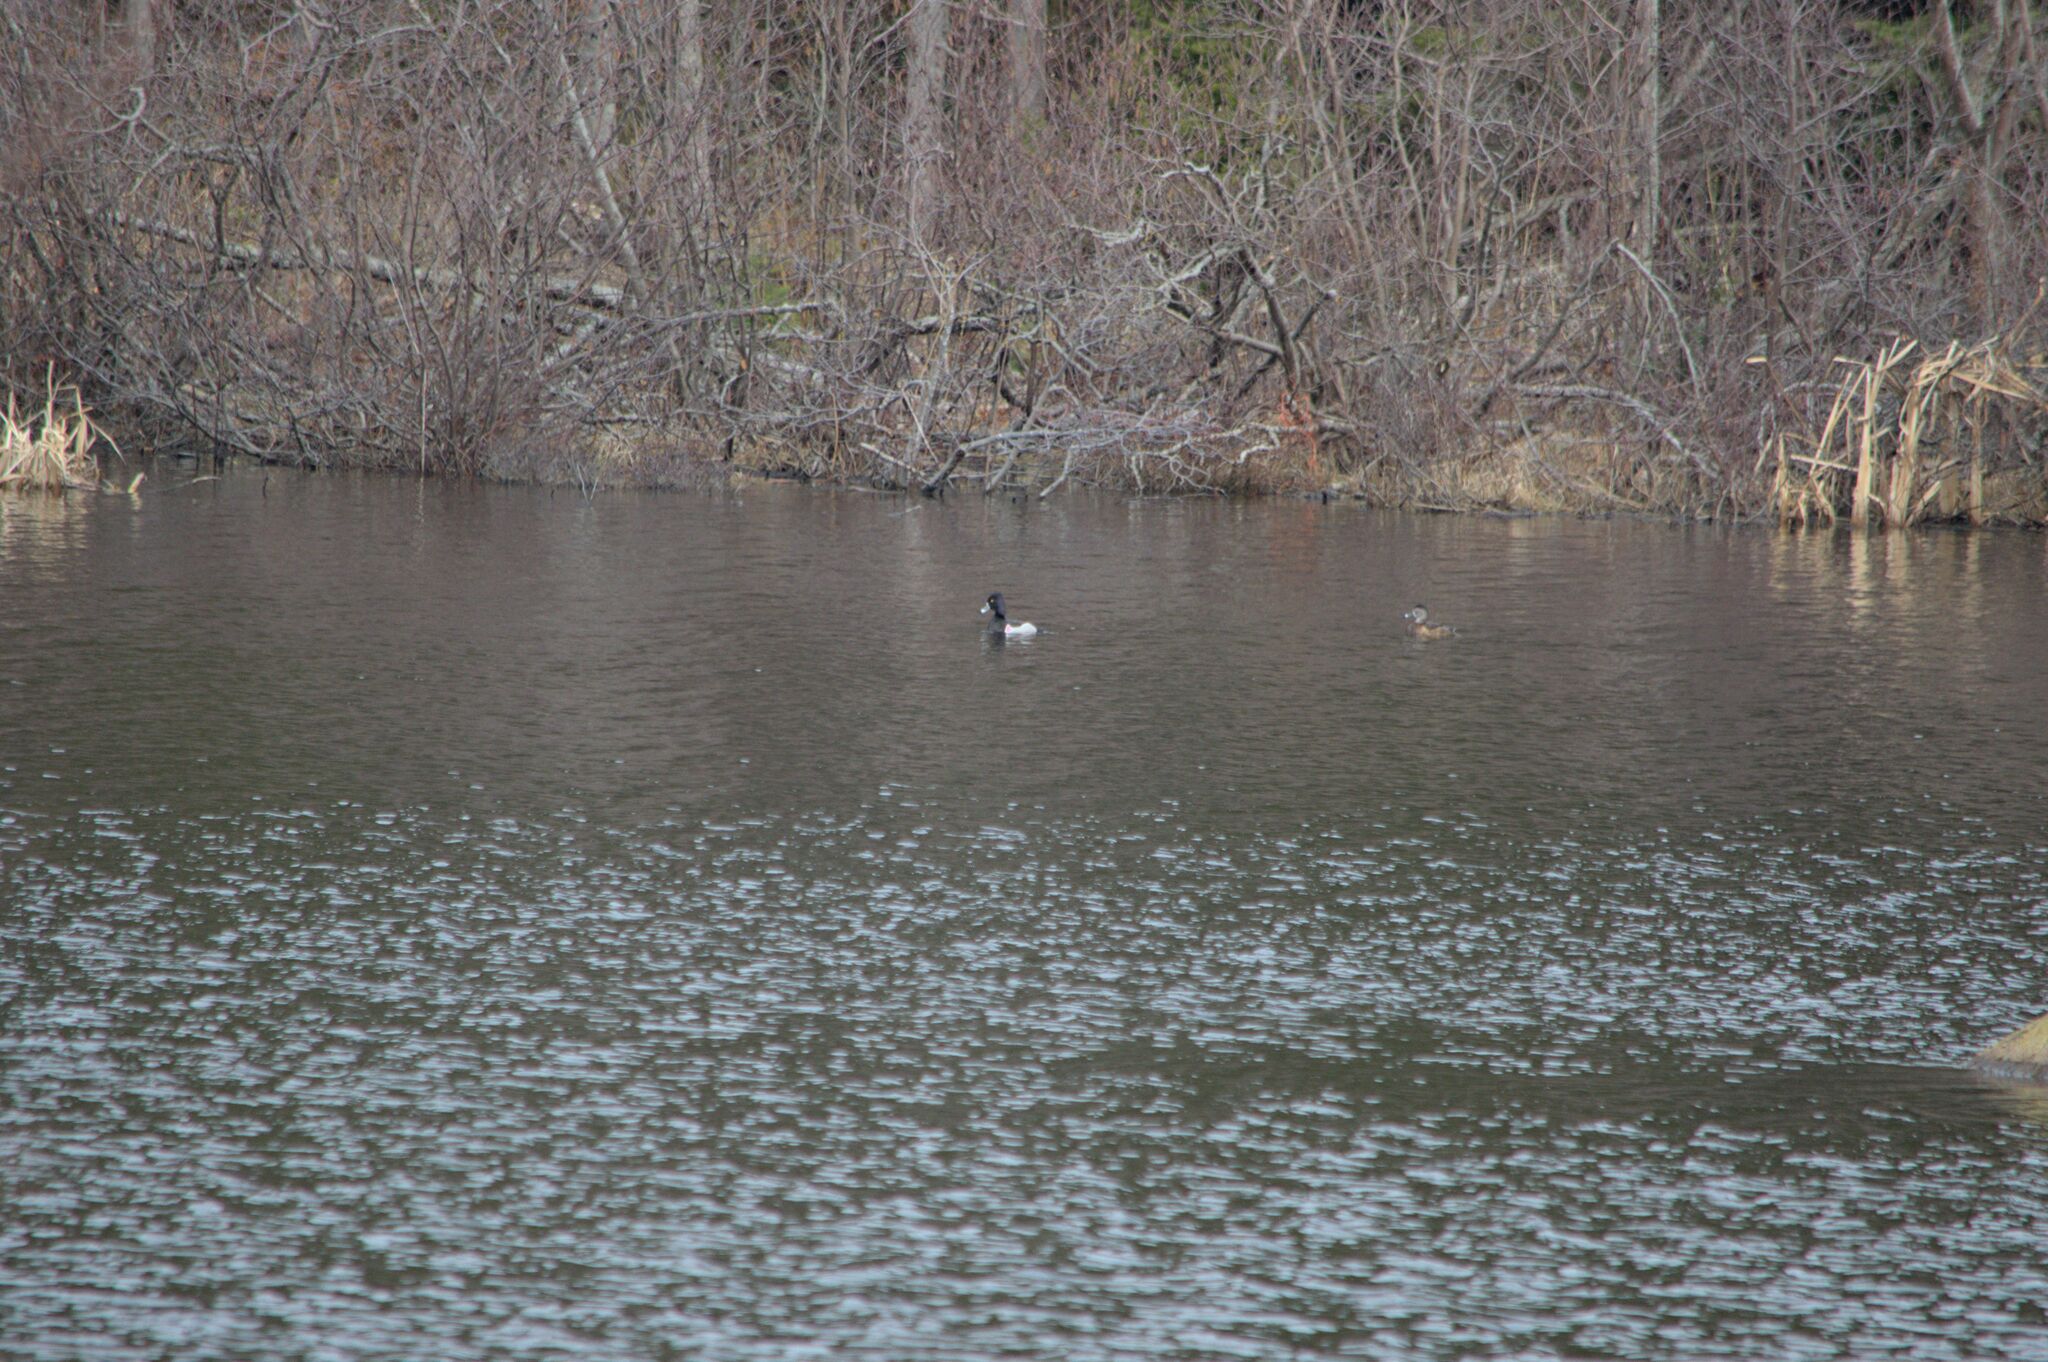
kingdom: Animalia
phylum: Chordata
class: Aves
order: Anseriformes
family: Anatidae
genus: Aythya
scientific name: Aythya collaris
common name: Ring-necked duck
